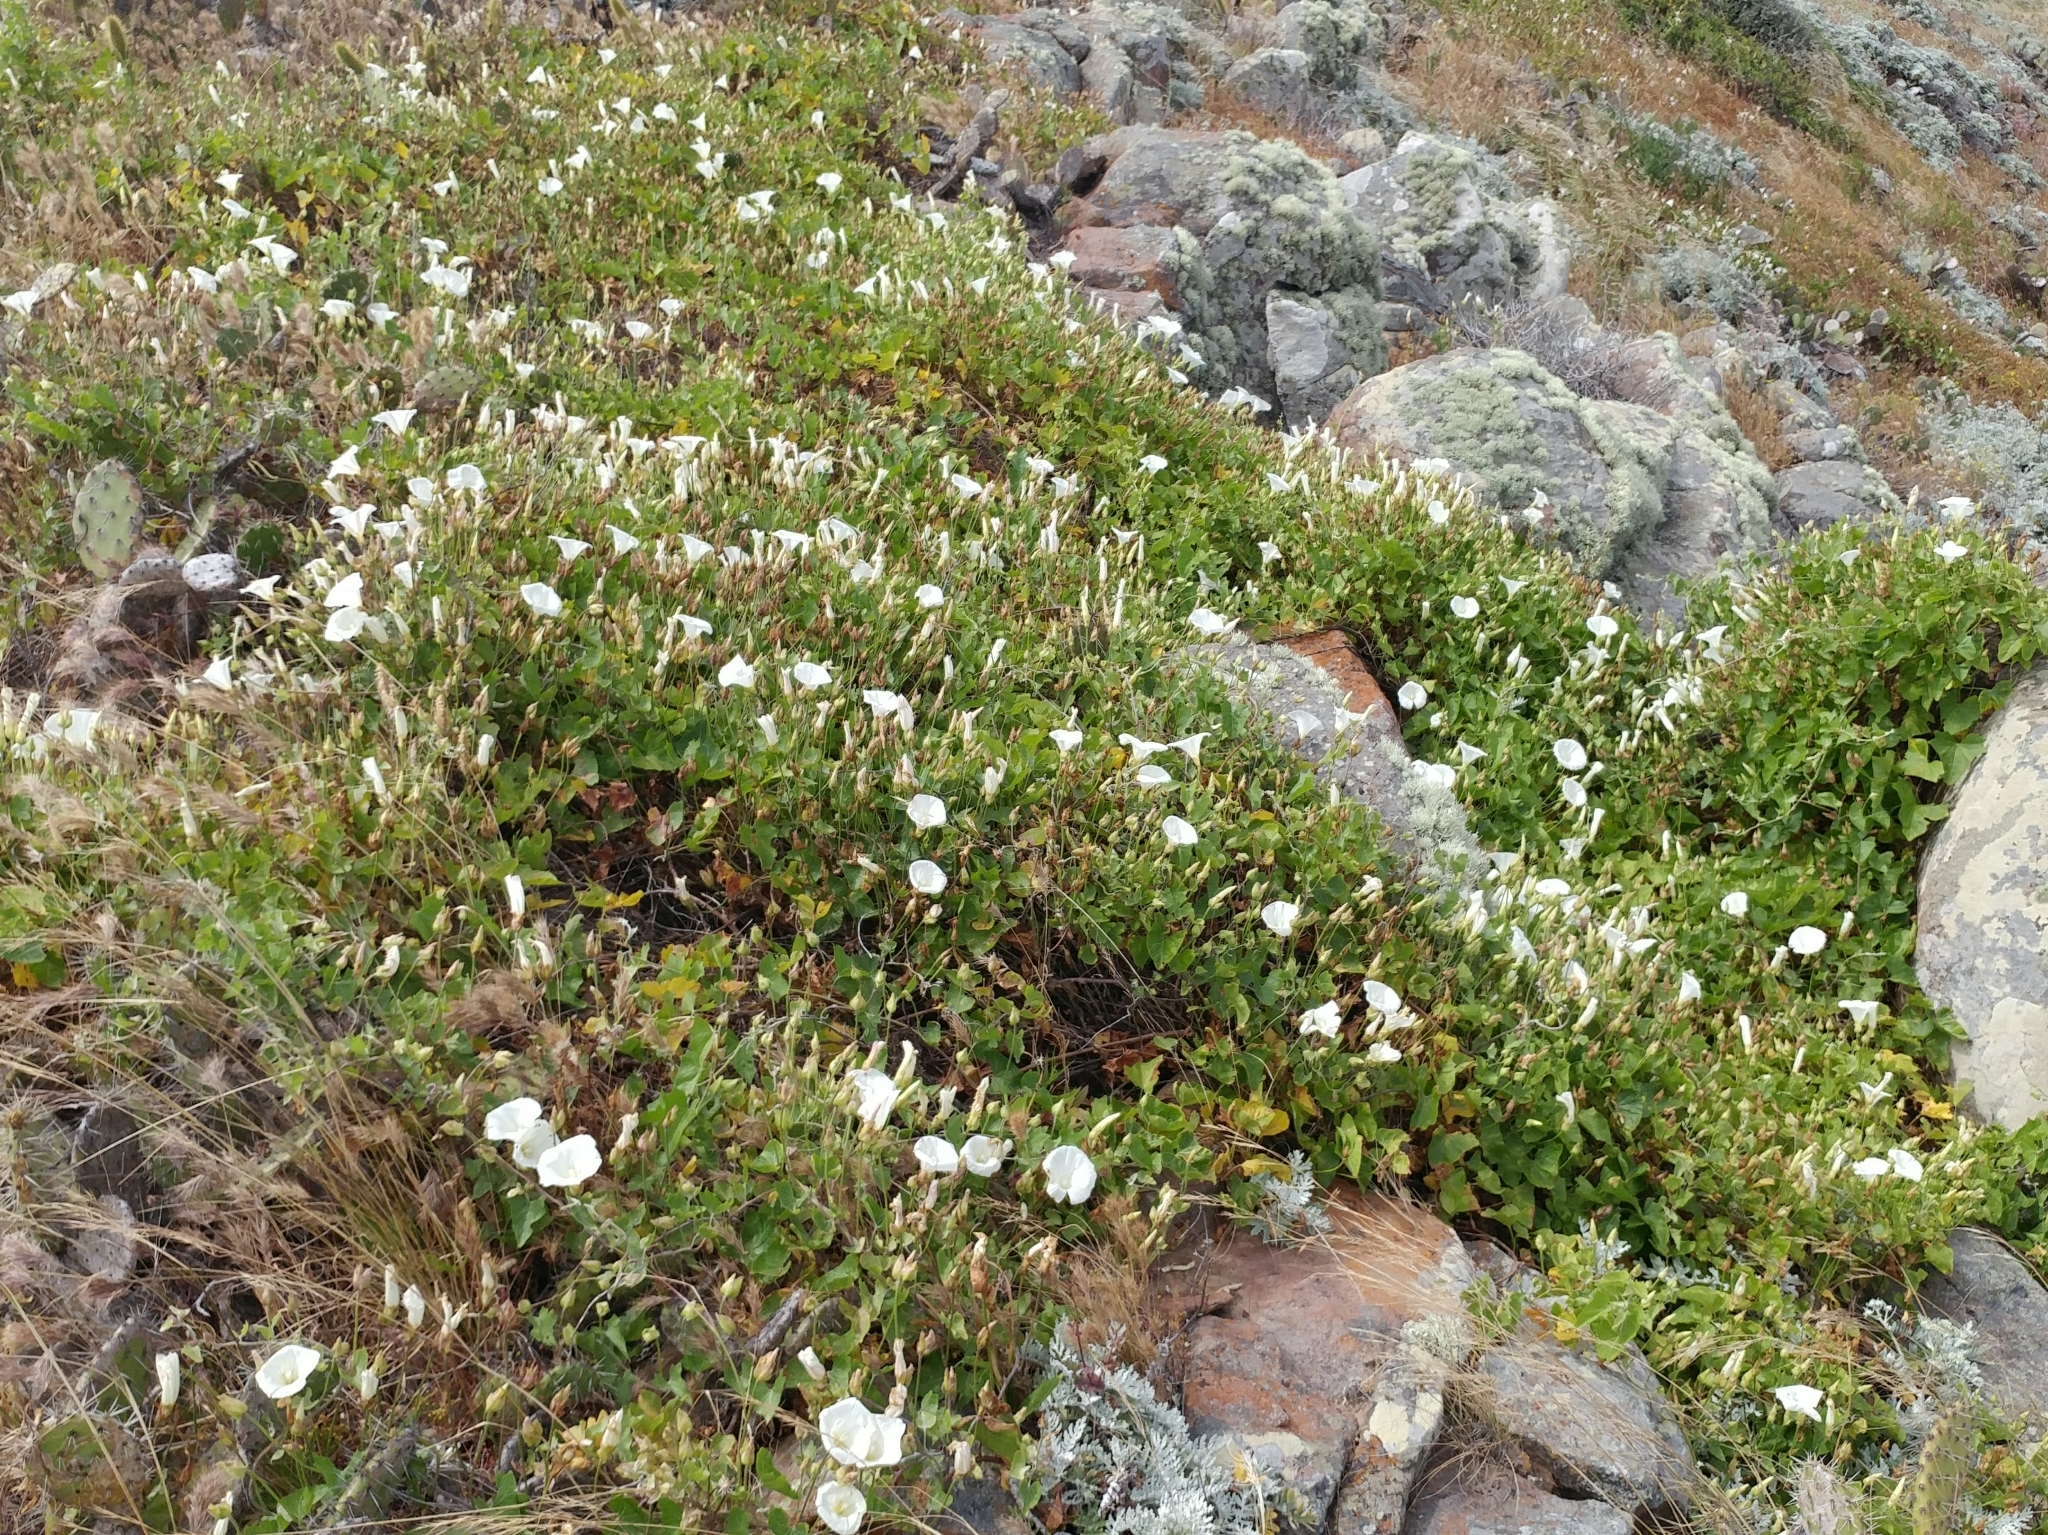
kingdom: Plantae
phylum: Tracheophyta
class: Magnoliopsida
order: Solanales
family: Convolvulaceae
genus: Calystegia
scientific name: Calystegia macrostegia
